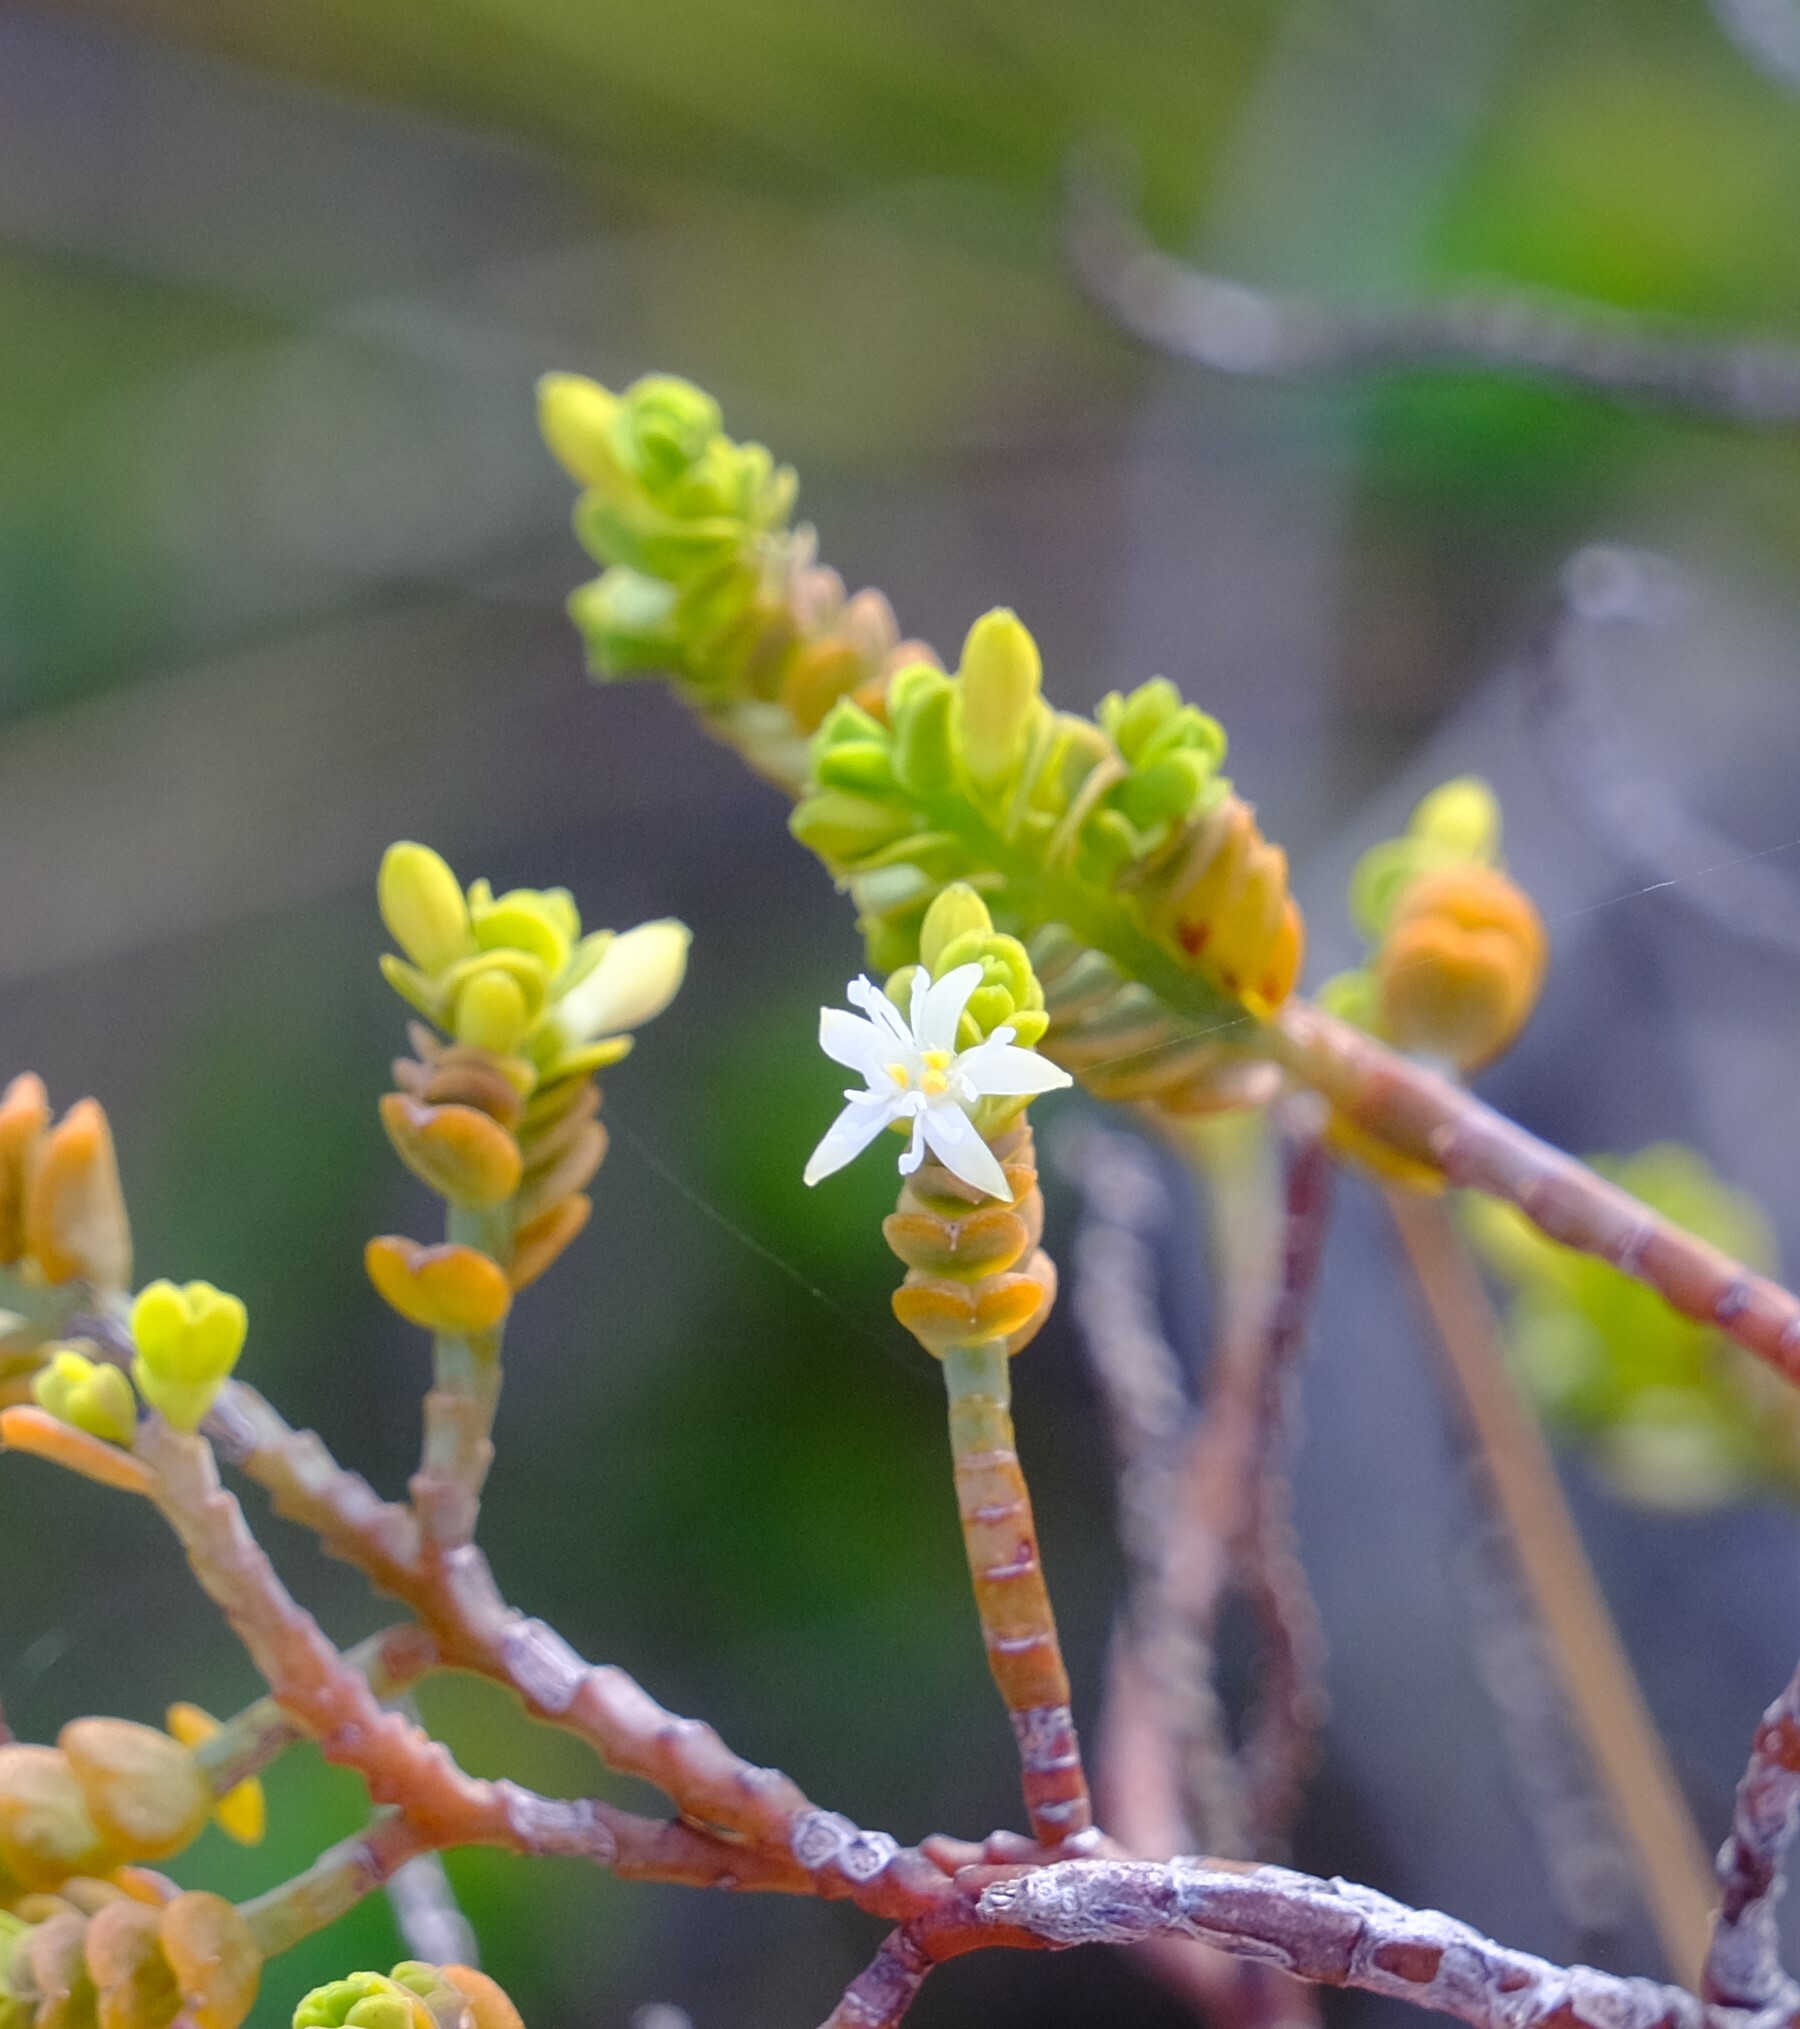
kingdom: Plantae
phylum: Tracheophyta
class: Magnoliopsida
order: Santalales
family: Olacaceae
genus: Olax
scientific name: Olax benthamiana
